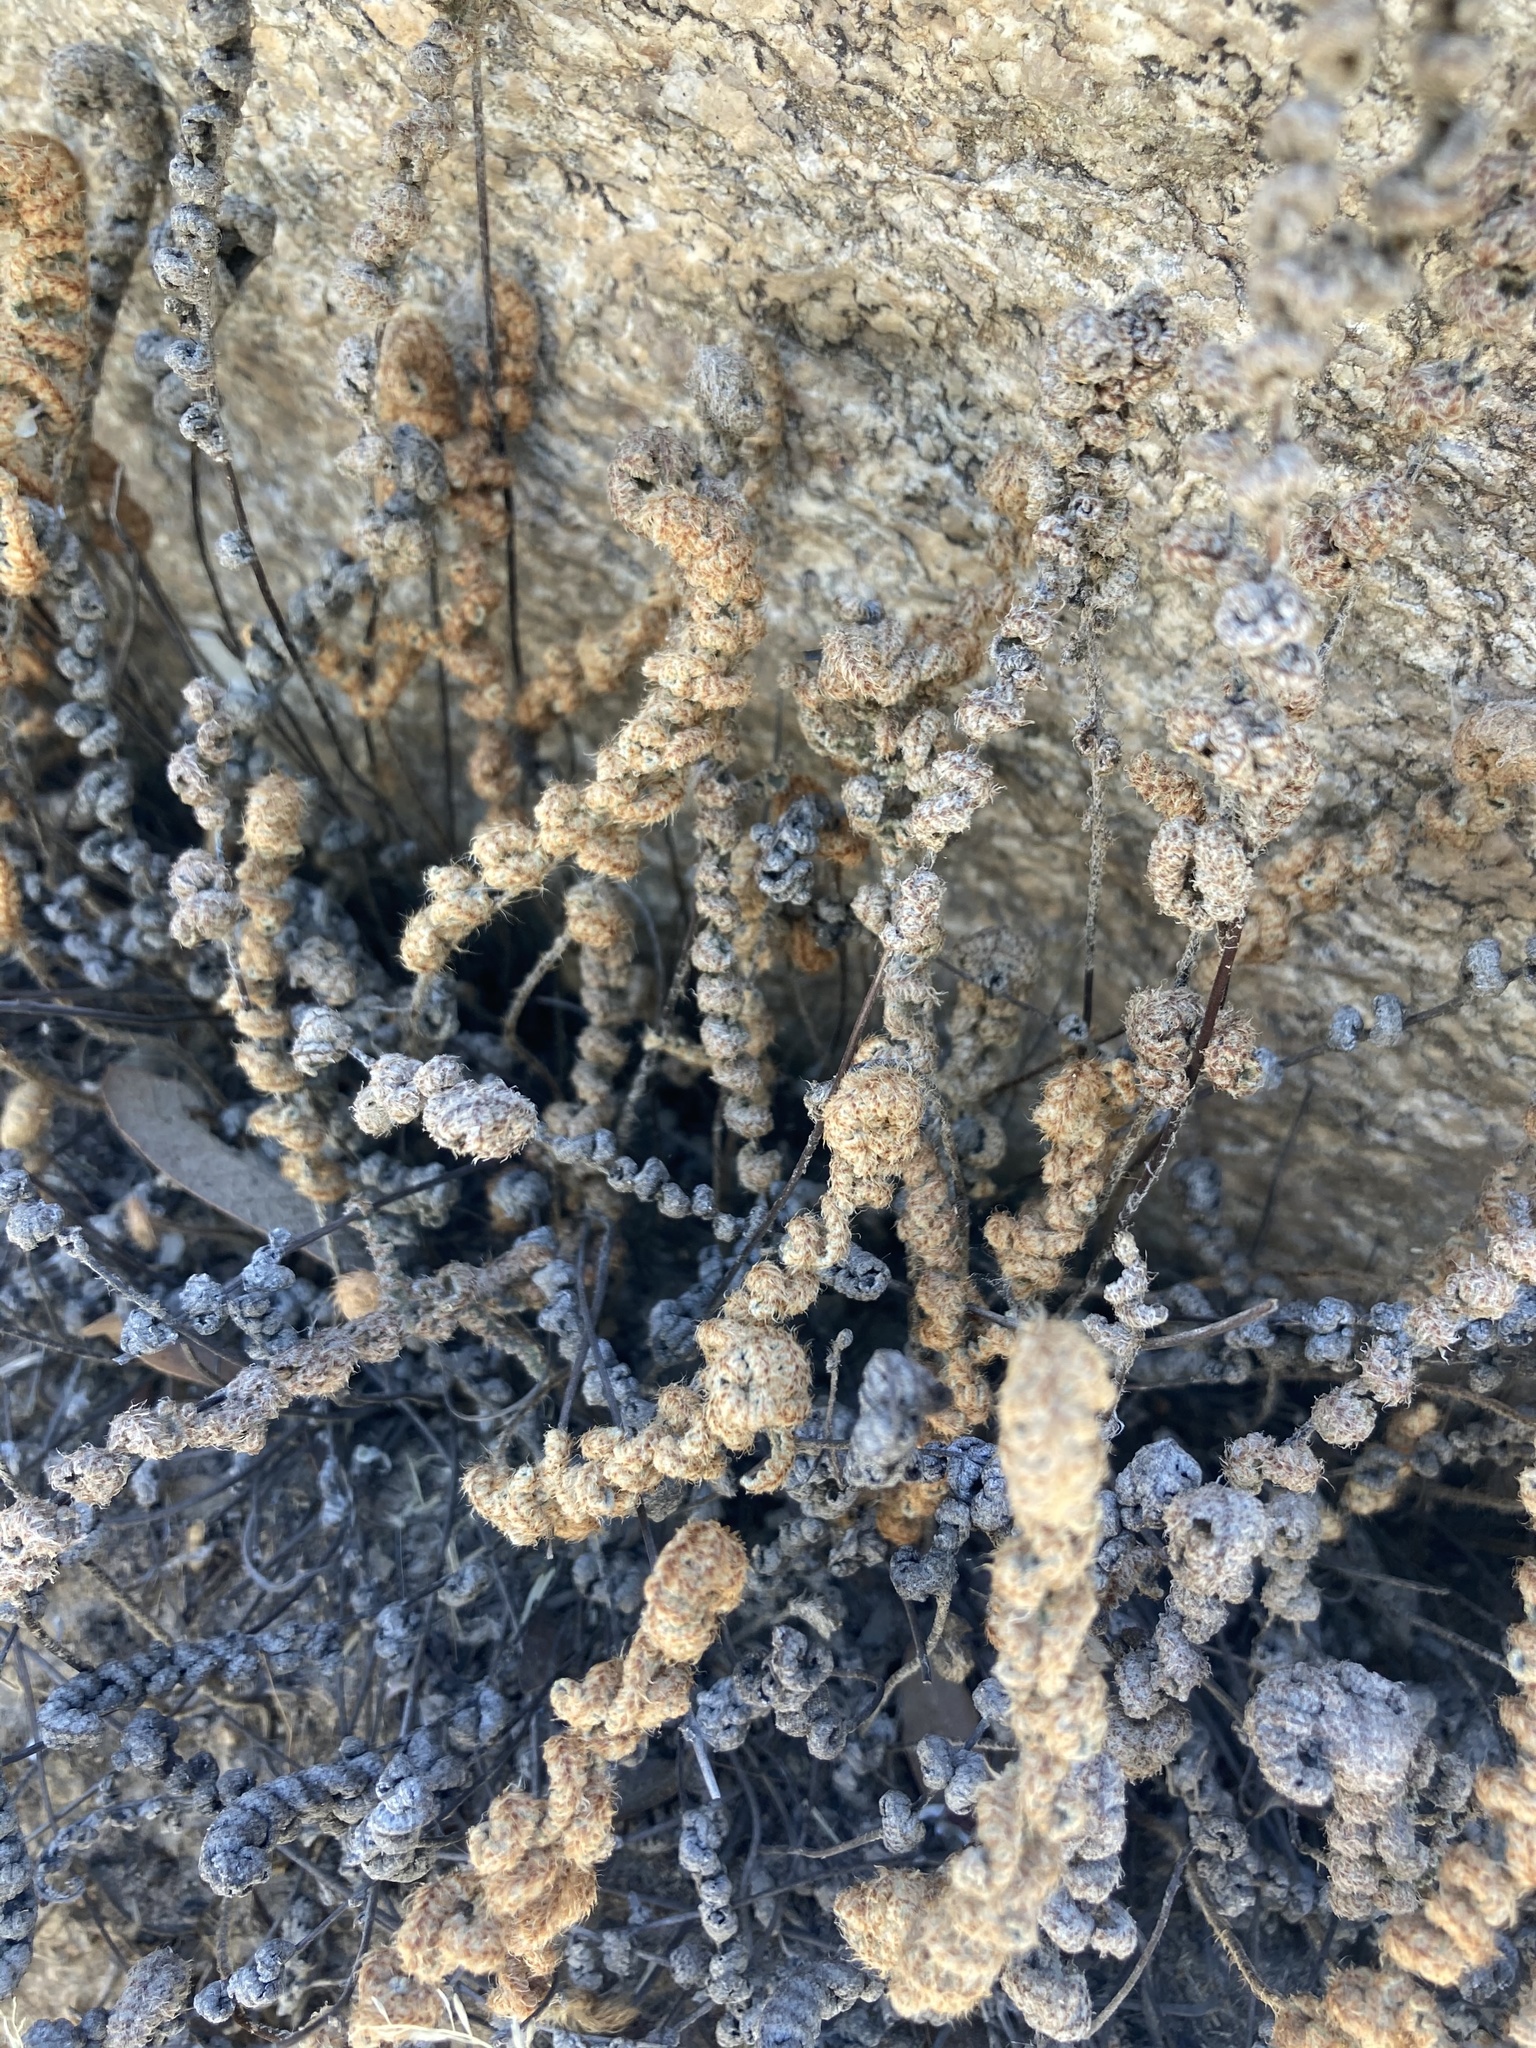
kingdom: Plantae
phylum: Tracheophyta
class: Polypodiopsida
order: Polypodiales
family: Pteridaceae
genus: Myriopteris
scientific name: Myriopteris lindheimeri
